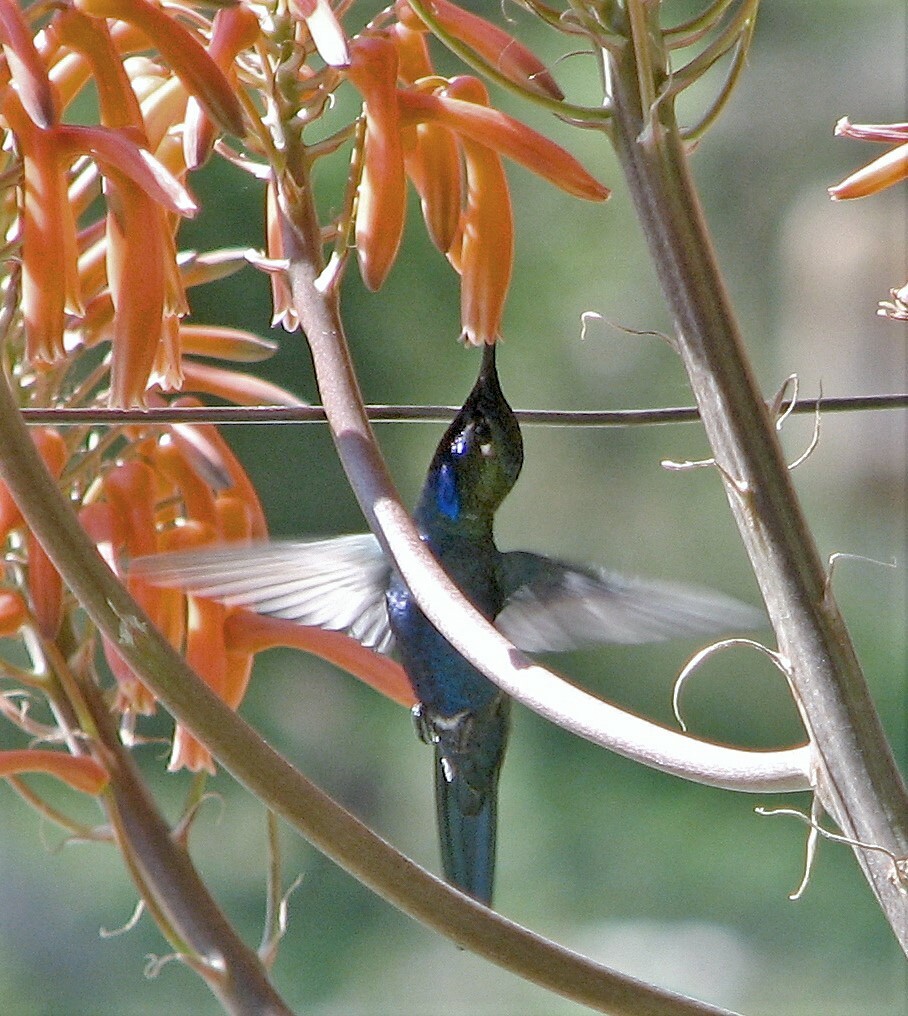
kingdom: Animalia
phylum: Chordata
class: Aves
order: Apodiformes
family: Trochilidae
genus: Heliomaster
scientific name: Heliomaster furcifer
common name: Blue-tufted starthroat
